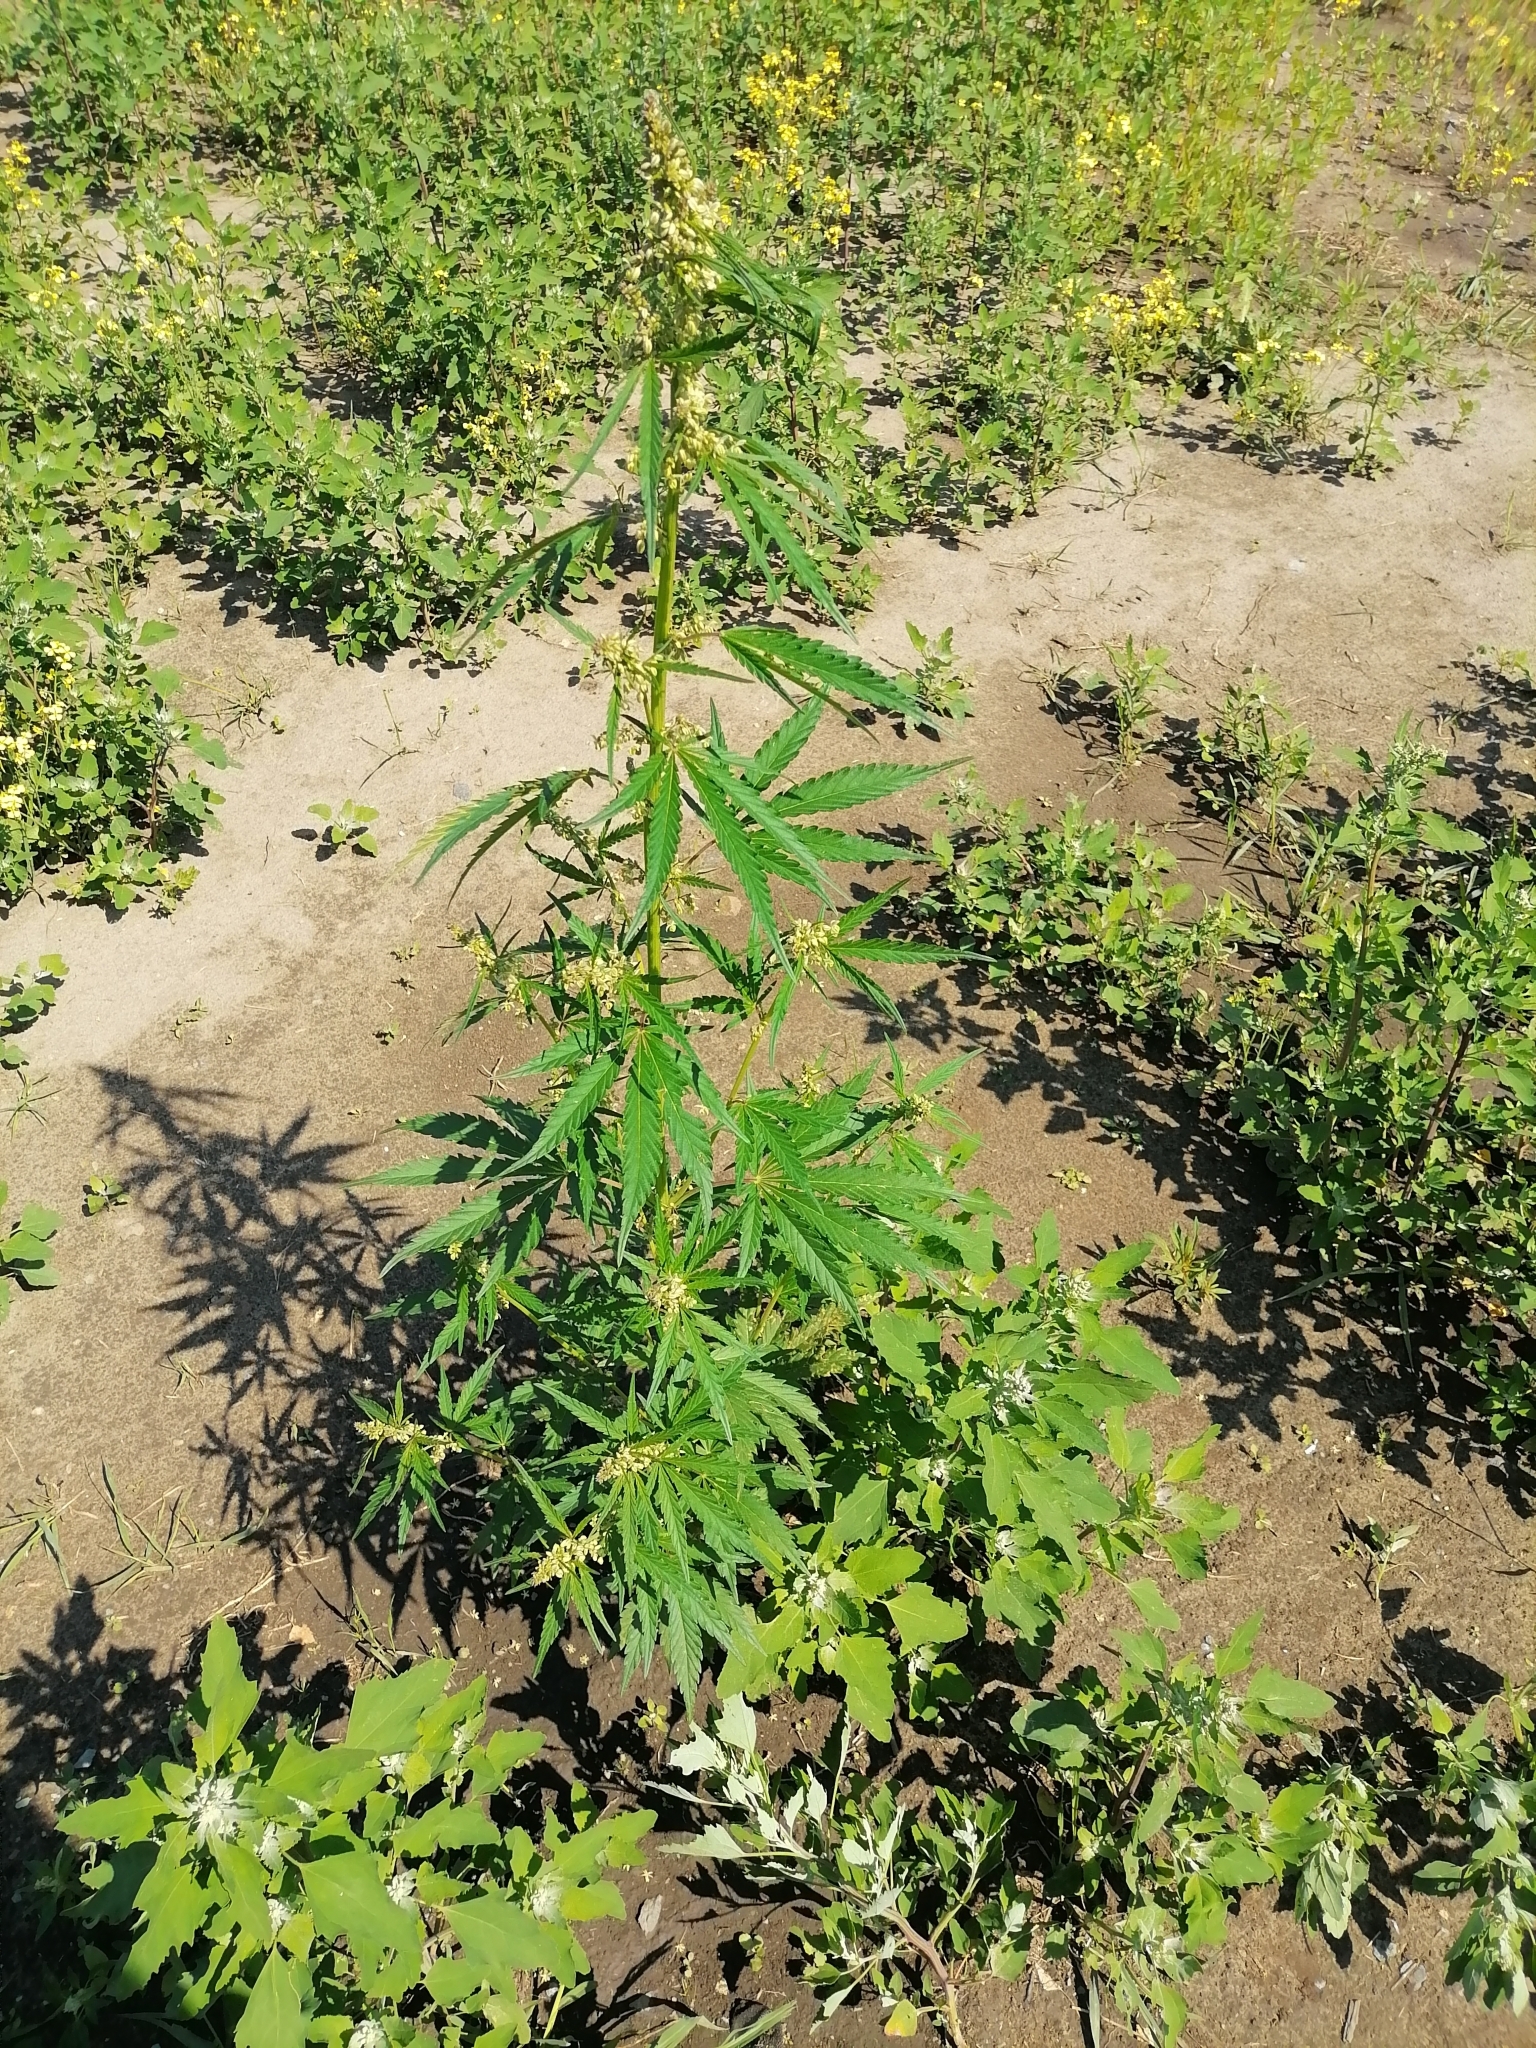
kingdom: Plantae
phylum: Tracheophyta
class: Magnoliopsida
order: Rosales
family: Cannabaceae
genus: Cannabis
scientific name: Cannabis sativa
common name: Hemp
